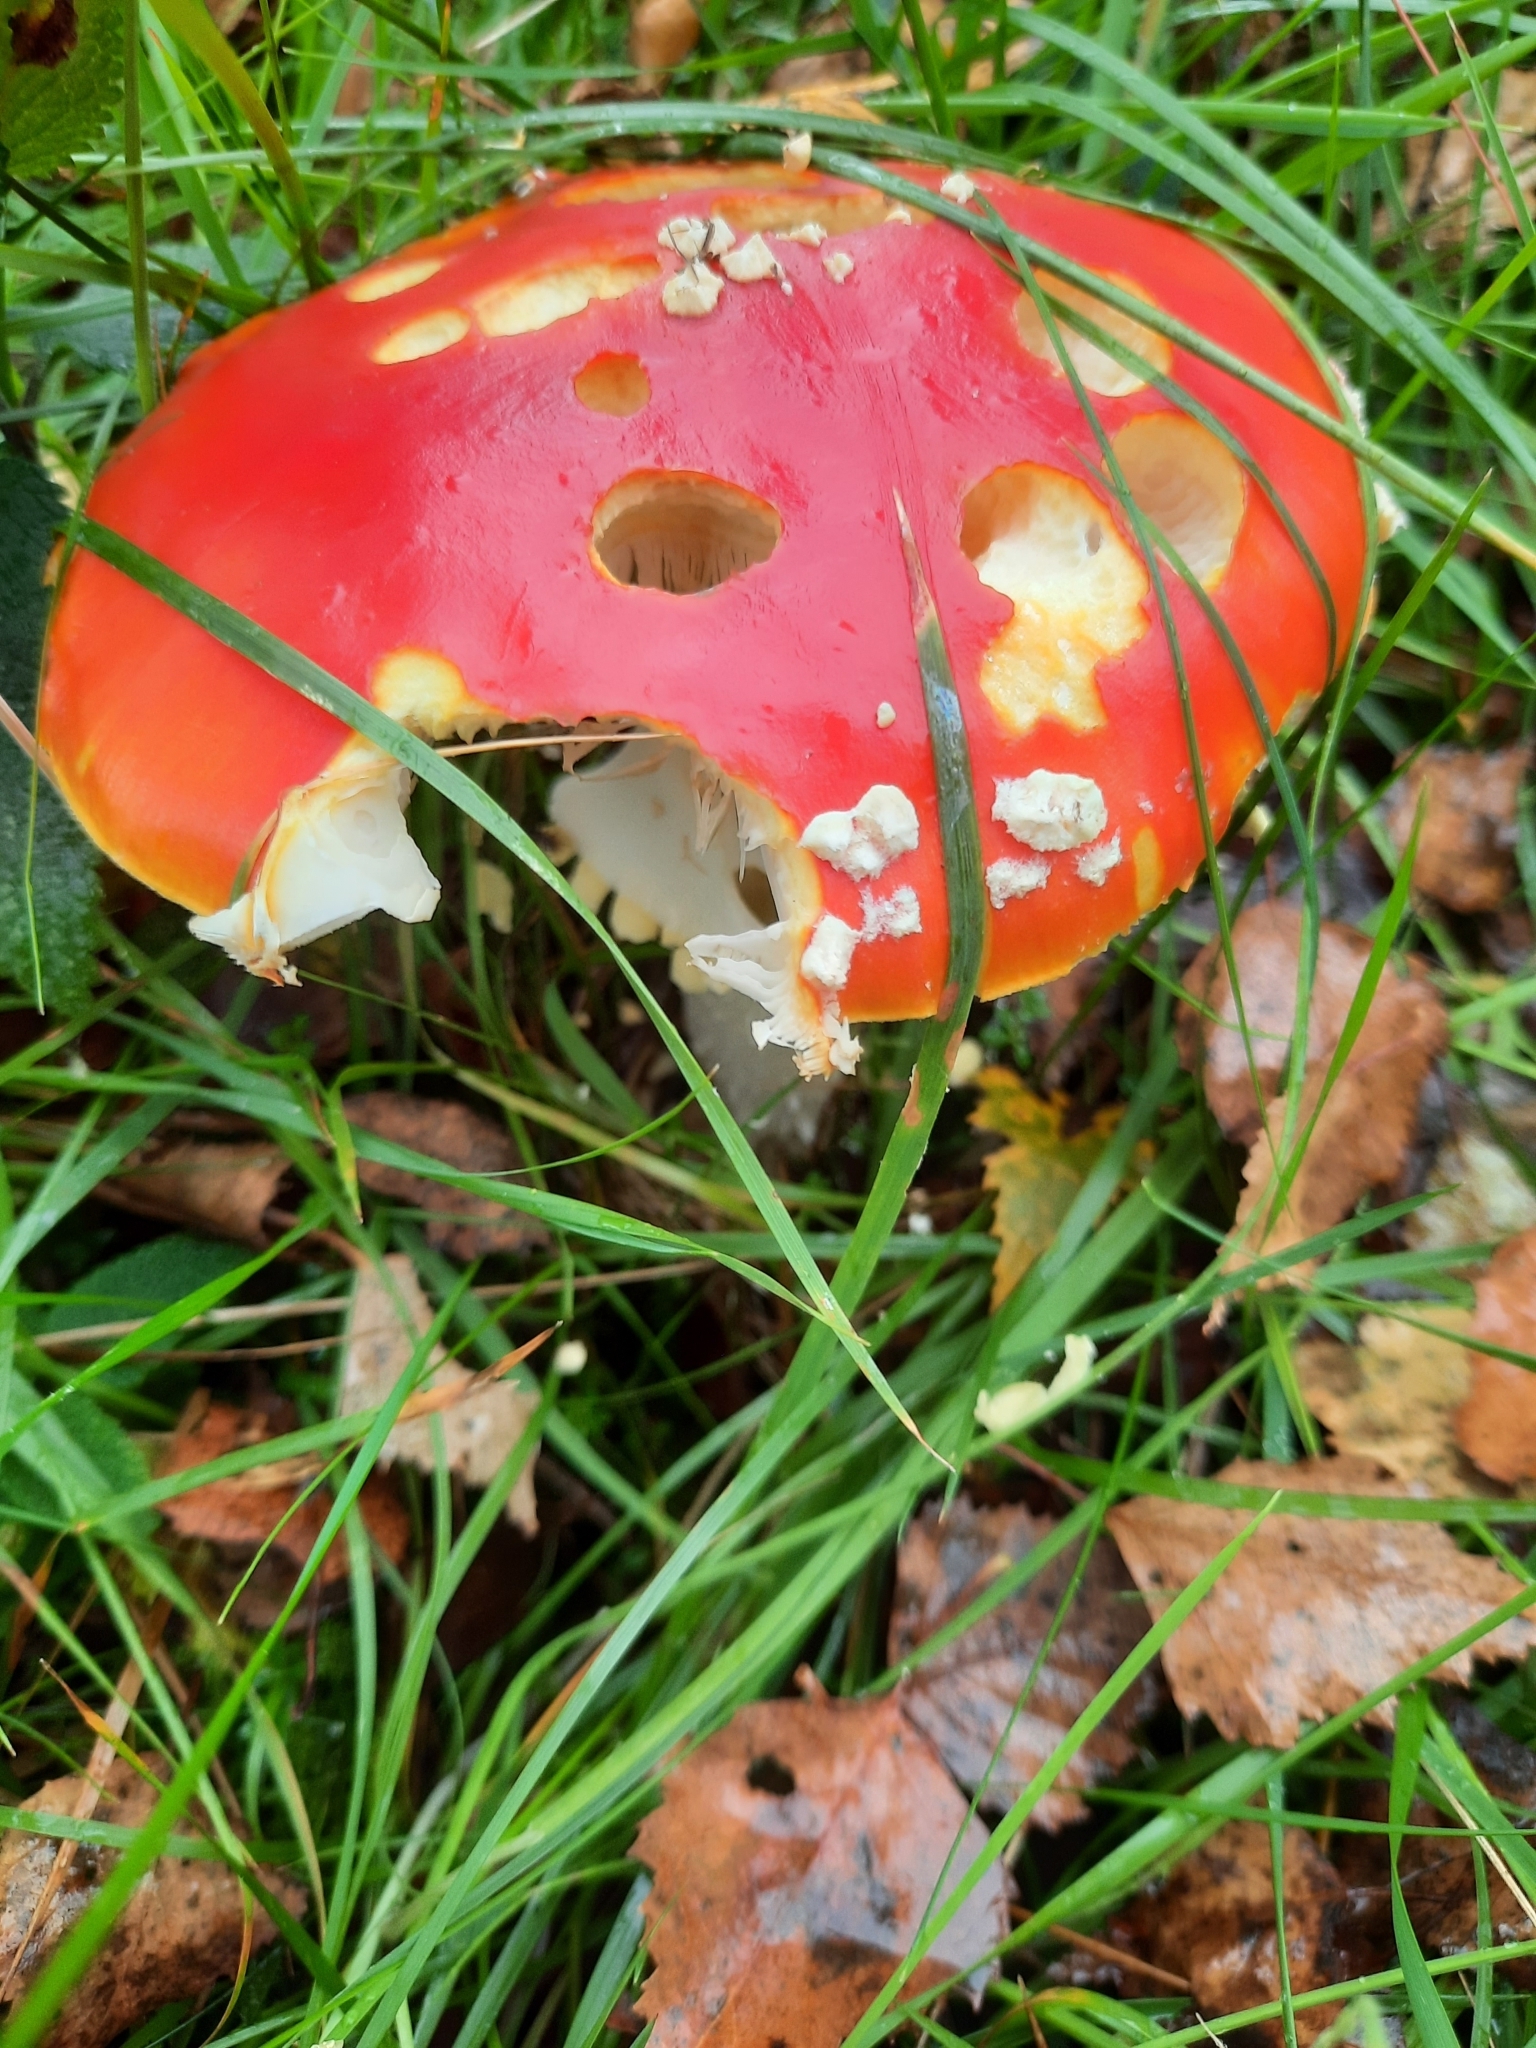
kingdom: Fungi
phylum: Basidiomycota
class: Agaricomycetes
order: Agaricales
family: Amanitaceae
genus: Amanita
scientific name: Amanita muscaria
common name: Fly agaric
